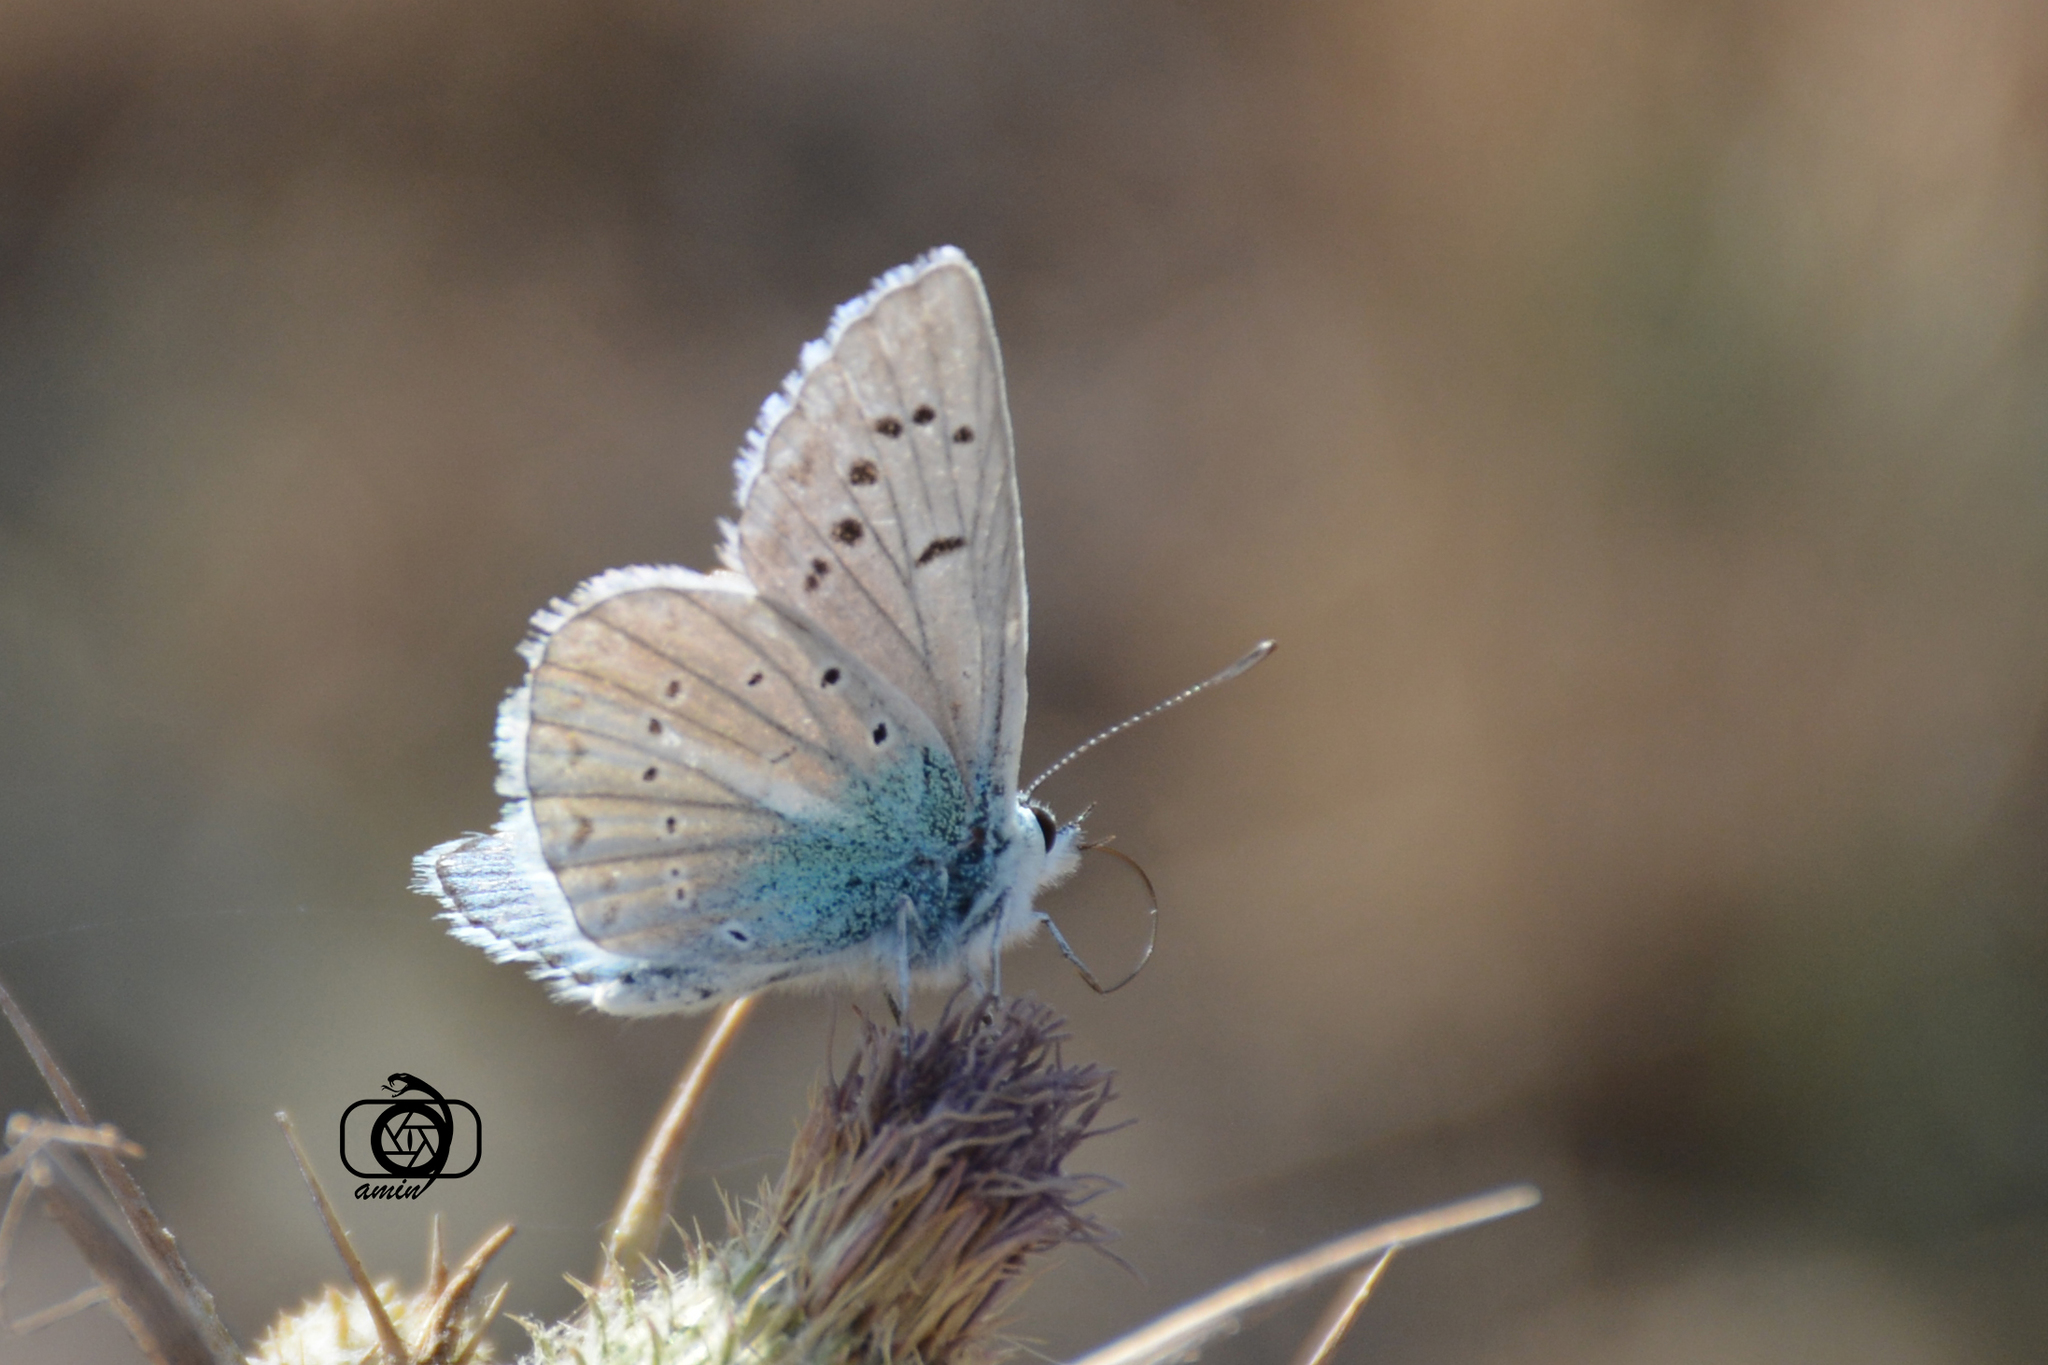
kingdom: Animalia
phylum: Arthropoda
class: Insecta
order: Lepidoptera
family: Lycaenidae
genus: Polyommatus
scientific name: Polyommatus masulensis
